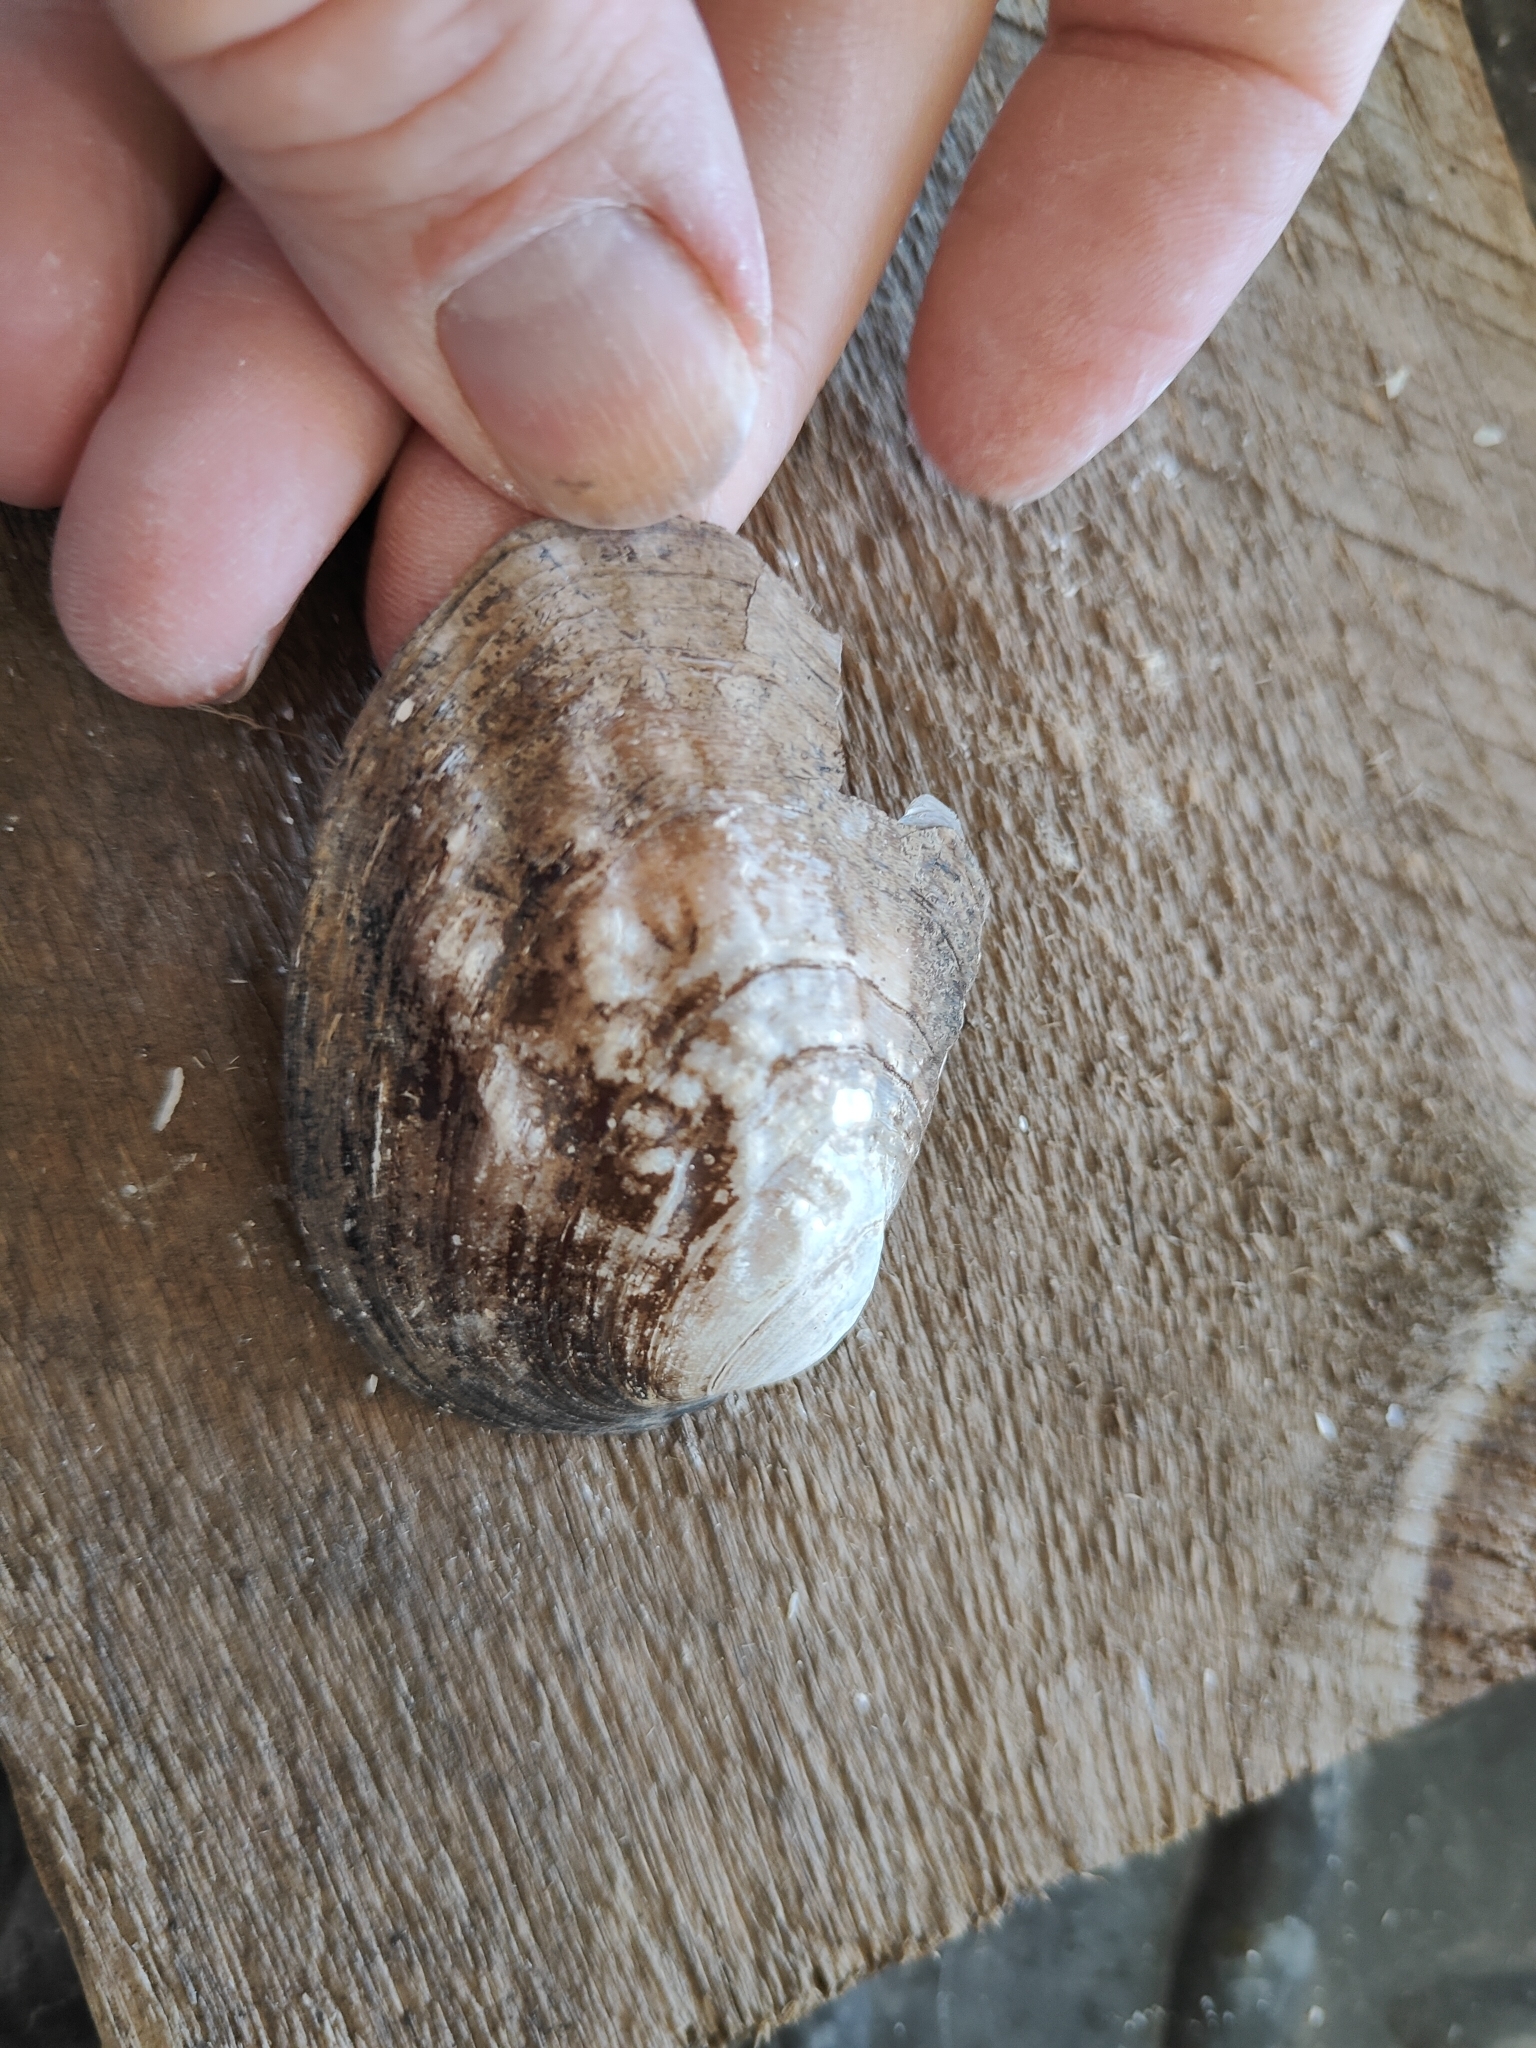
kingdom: Animalia
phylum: Mollusca
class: Bivalvia
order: Unionida
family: Unionidae
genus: Amblema
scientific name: Amblema plicata
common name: Threeridge
